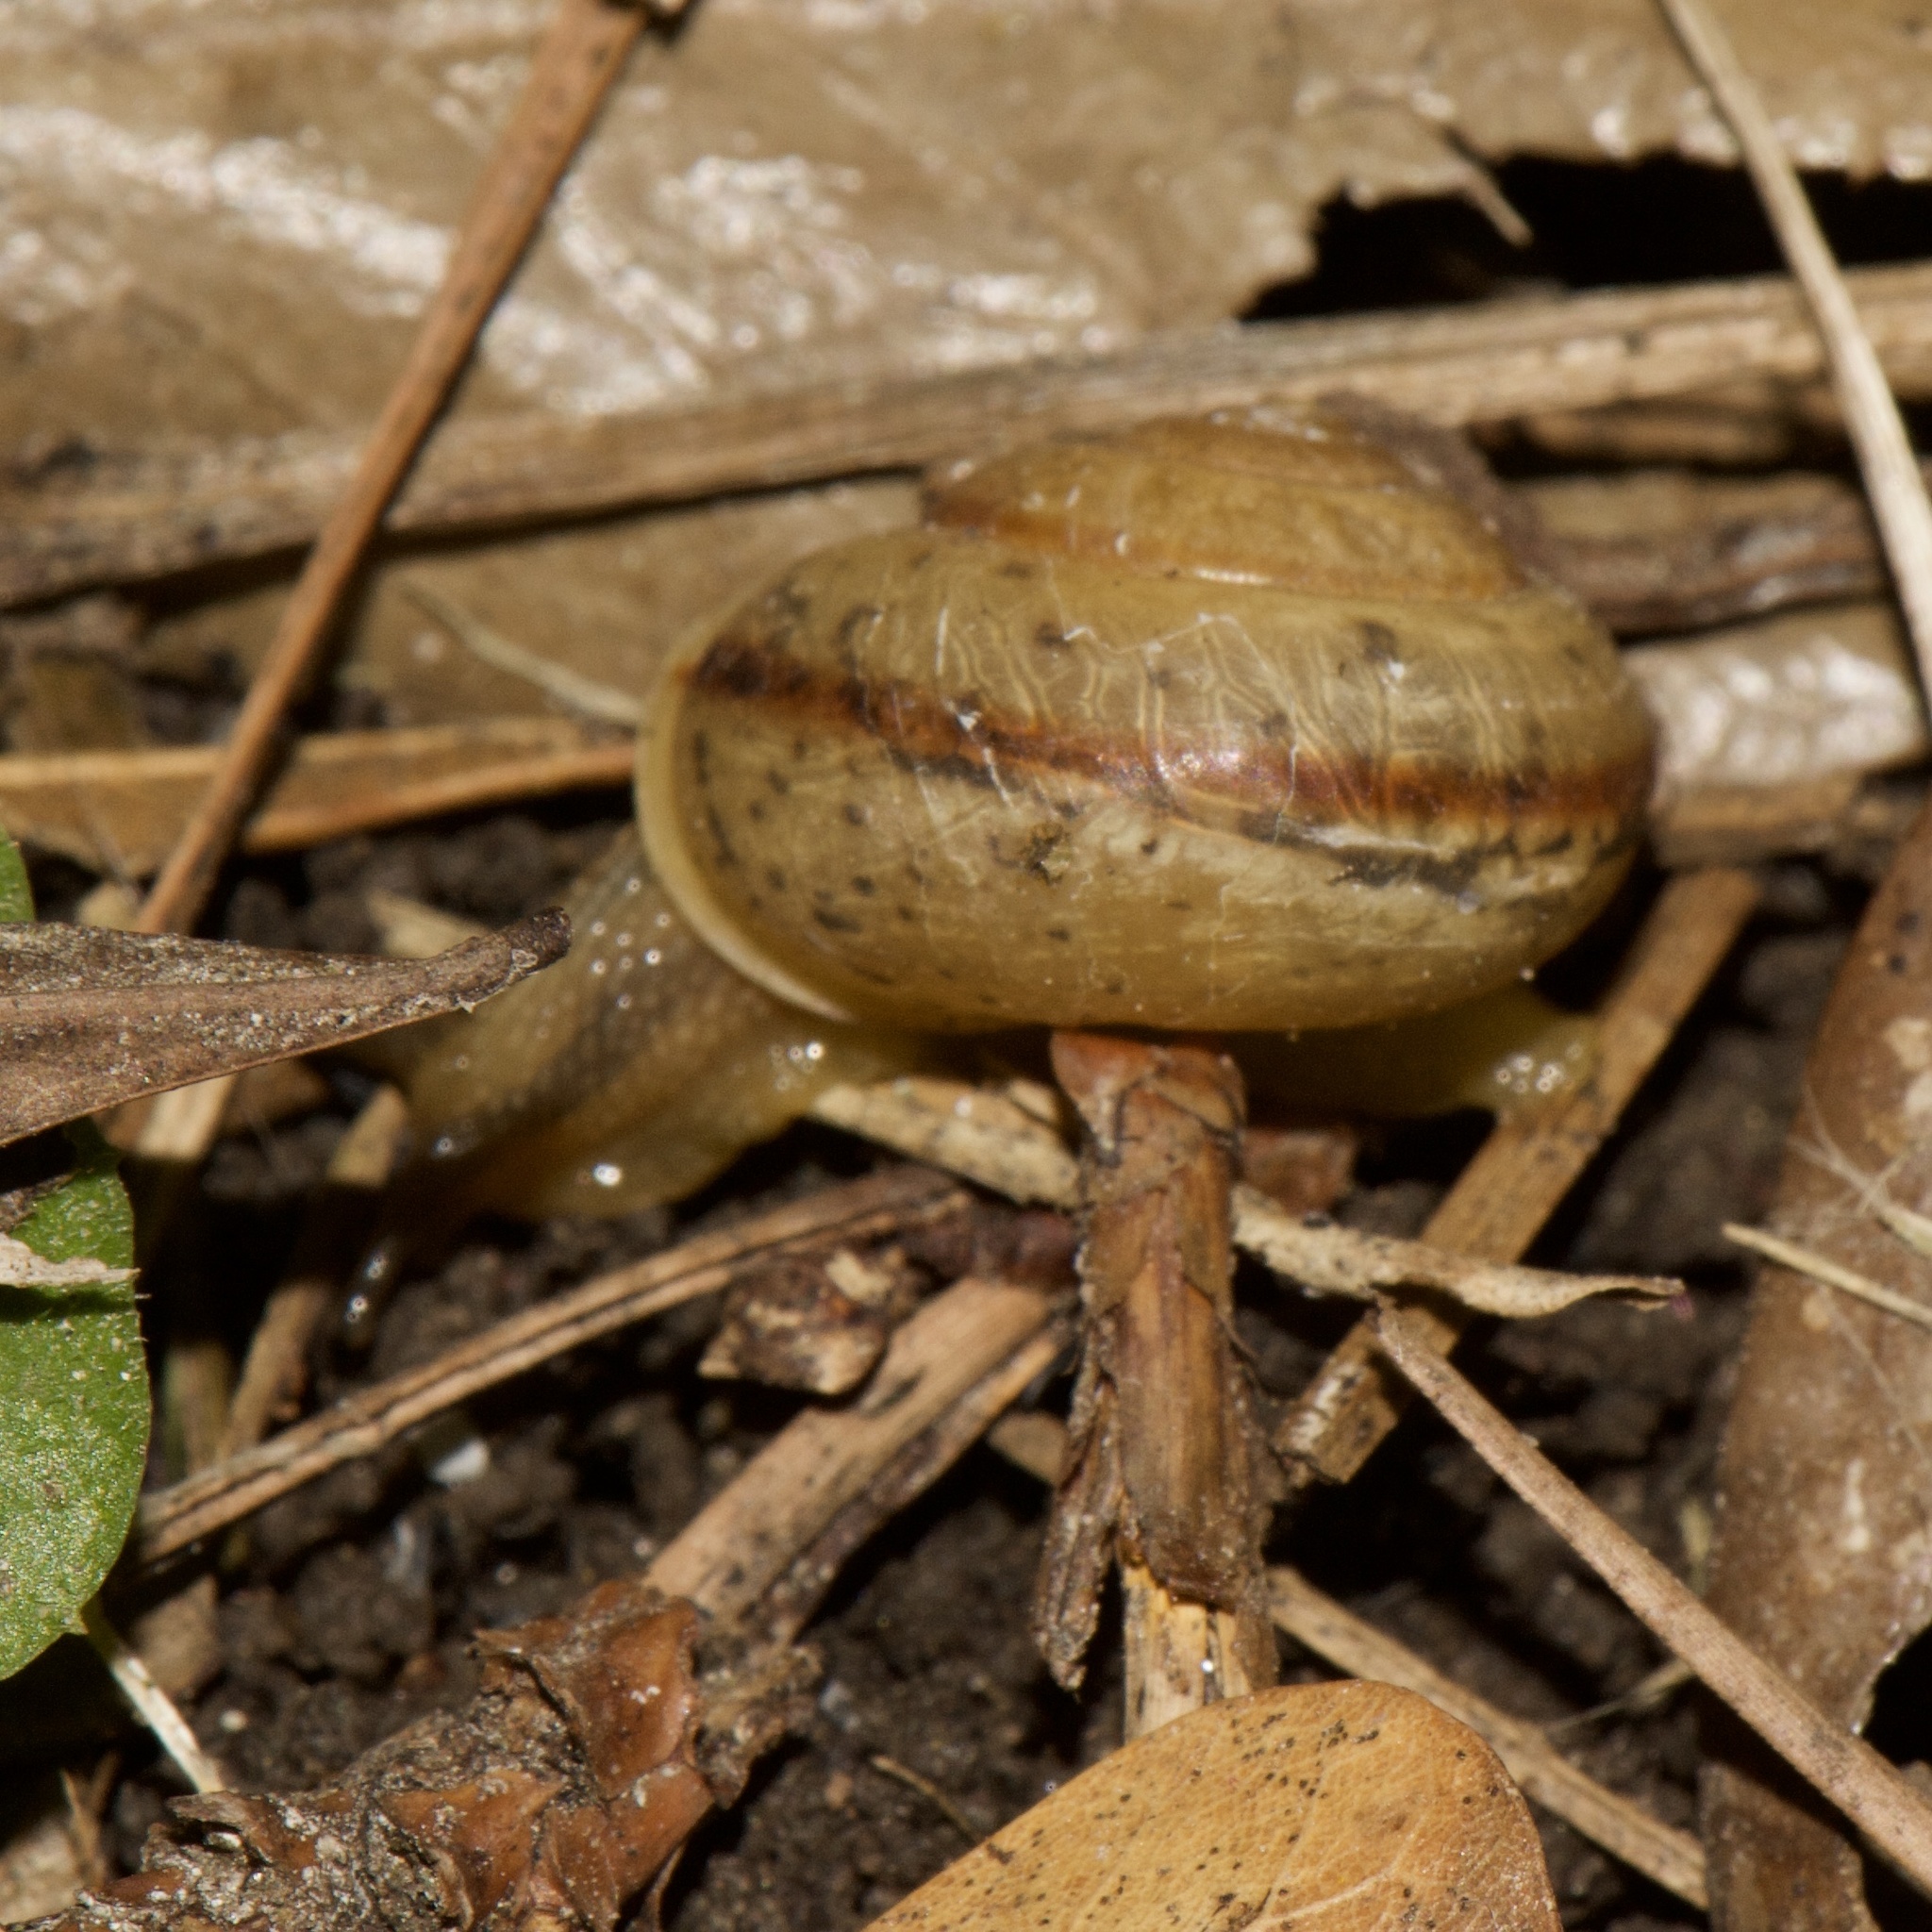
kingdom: Animalia
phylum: Mollusca
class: Gastropoda
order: Stylommatophora
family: Camaenidae
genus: Bradybaena
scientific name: Bradybaena similaris
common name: Asian trampsnail
